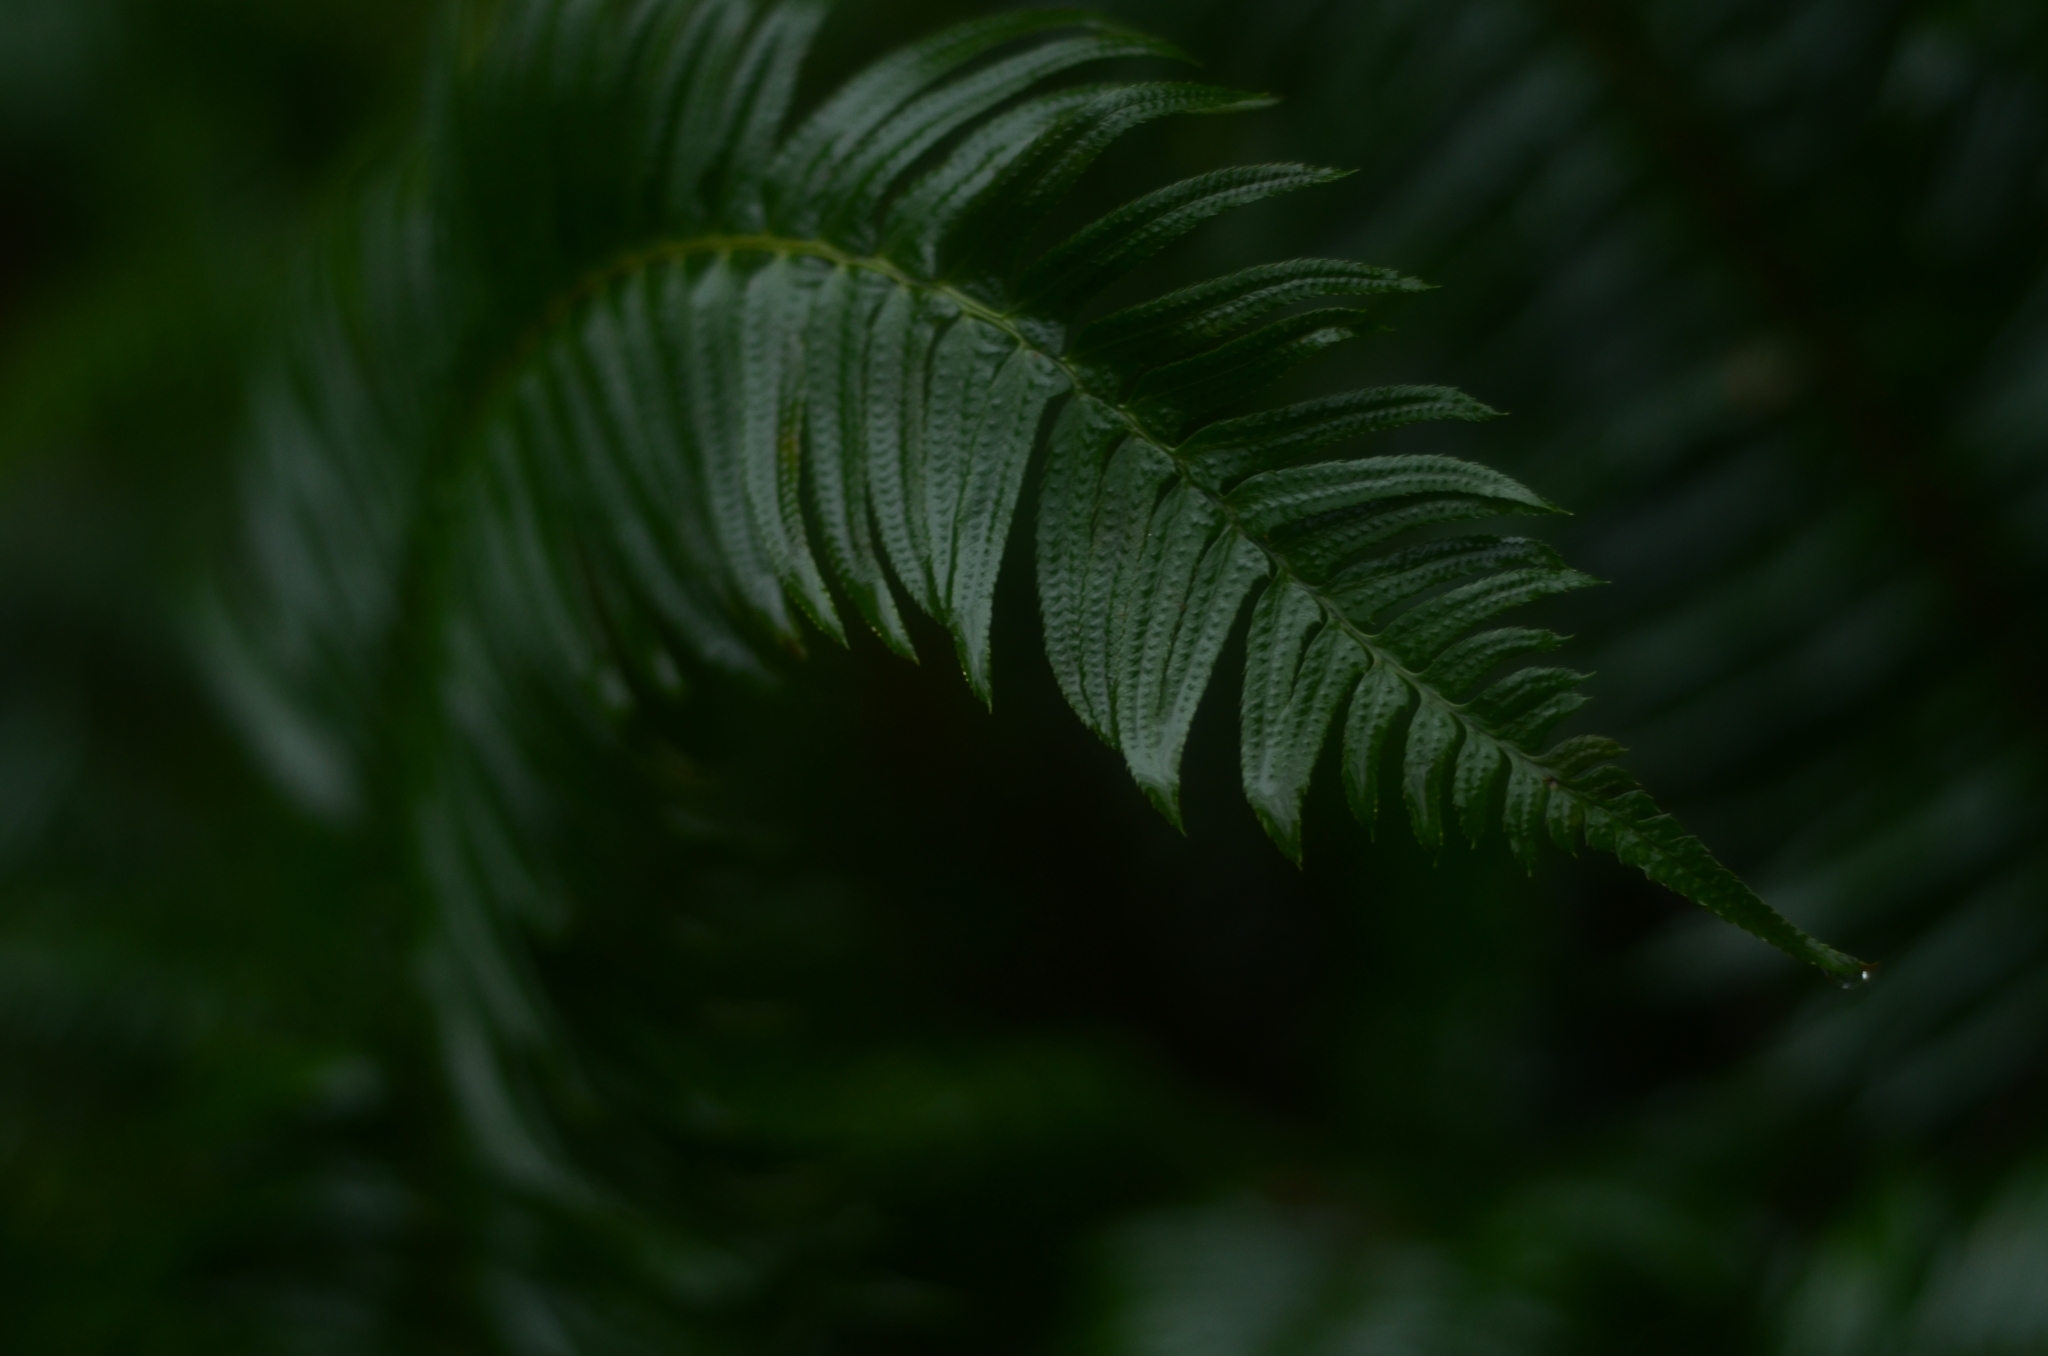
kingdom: Plantae
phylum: Tracheophyta
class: Polypodiopsida
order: Polypodiales
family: Dryopteridaceae
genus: Polystichum
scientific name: Polystichum munitum
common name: Western sword-fern
